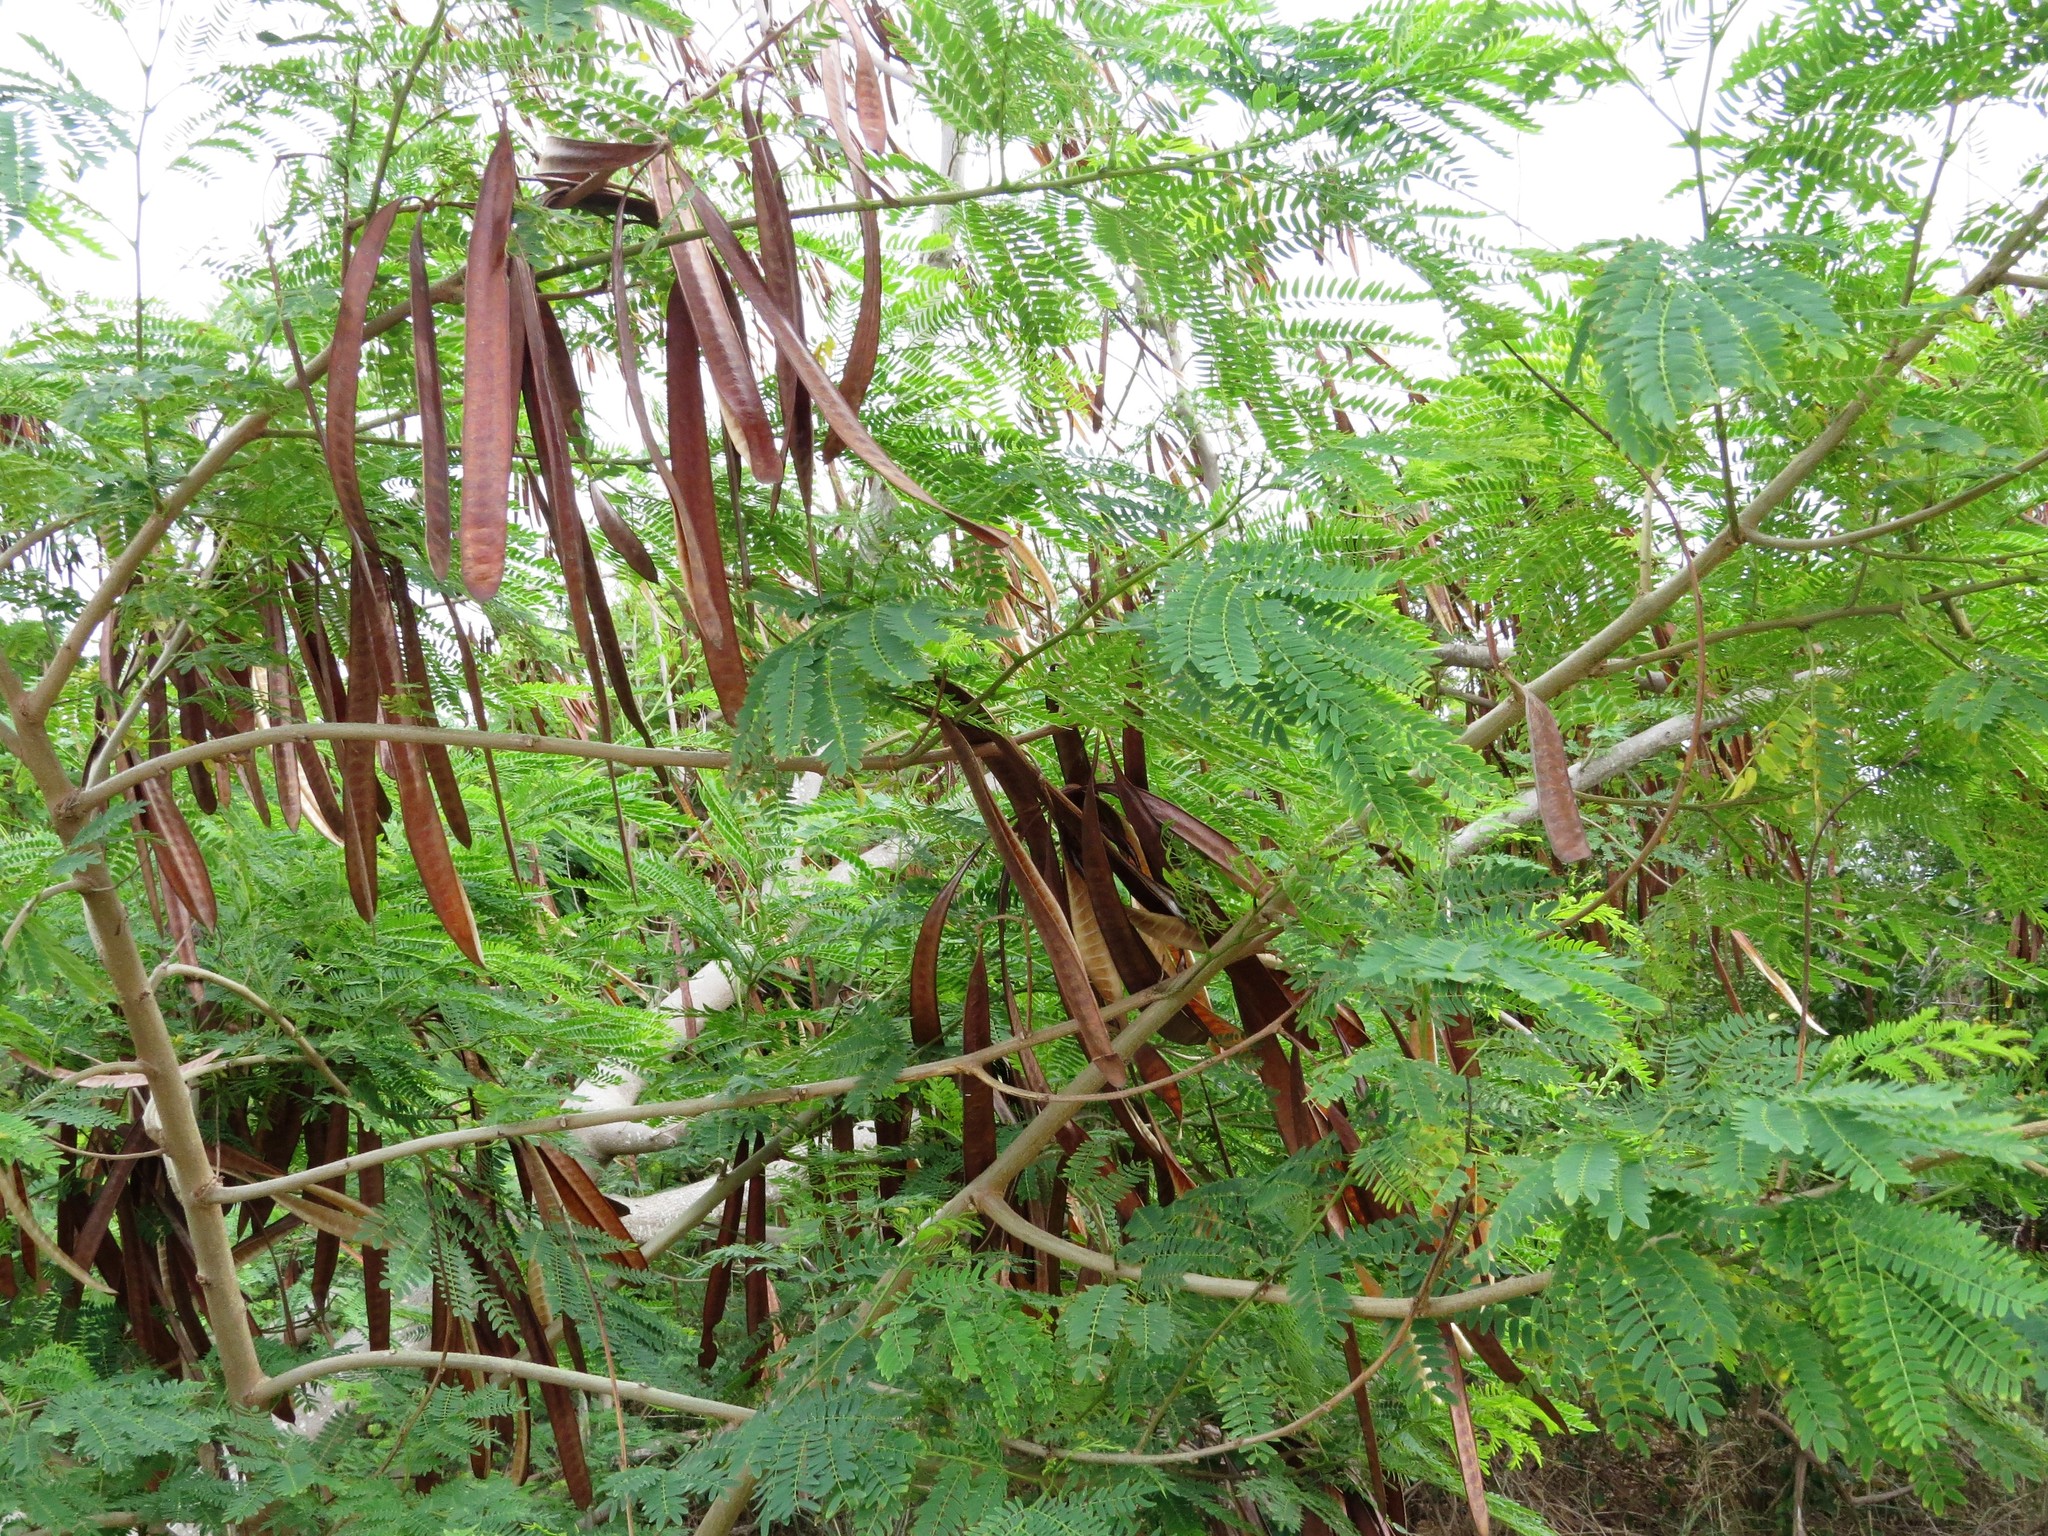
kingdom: Plantae
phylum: Tracheophyta
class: Magnoliopsida
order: Fabales
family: Fabaceae
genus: Leucaena
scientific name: Leucaena leucocephala
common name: White leadtree
